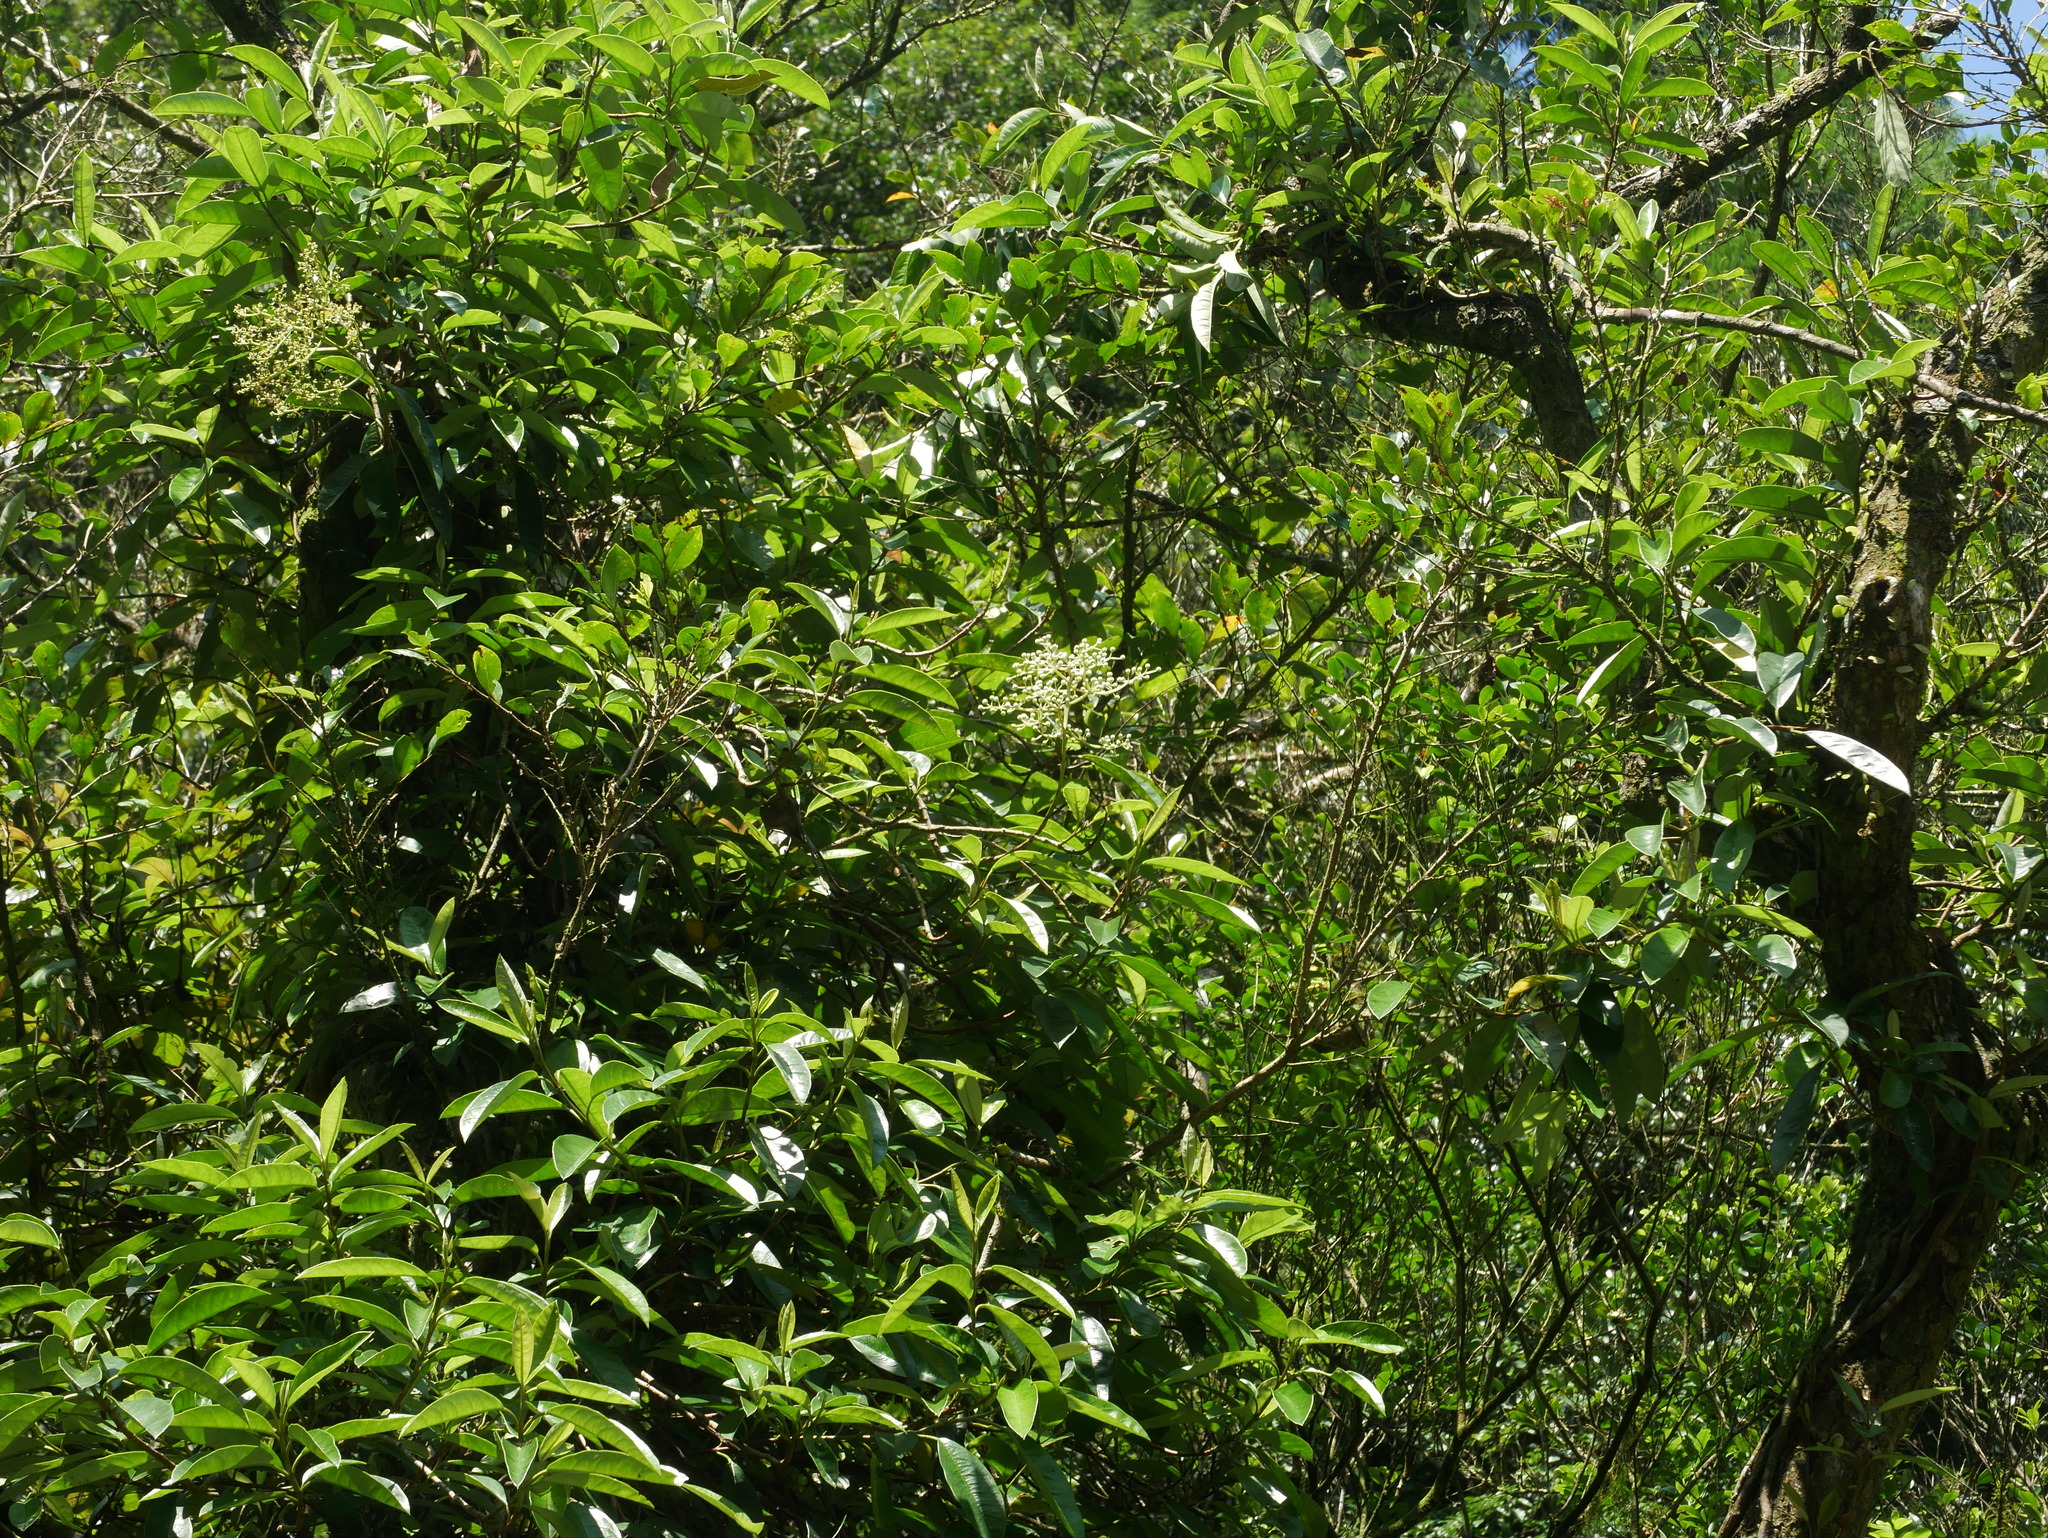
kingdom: Plantae
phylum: Tracheophyta
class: Magnoliopsida
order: Cornales
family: Hydrangeaceae
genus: Hydrangea
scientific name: Hydrangea viburnoides
